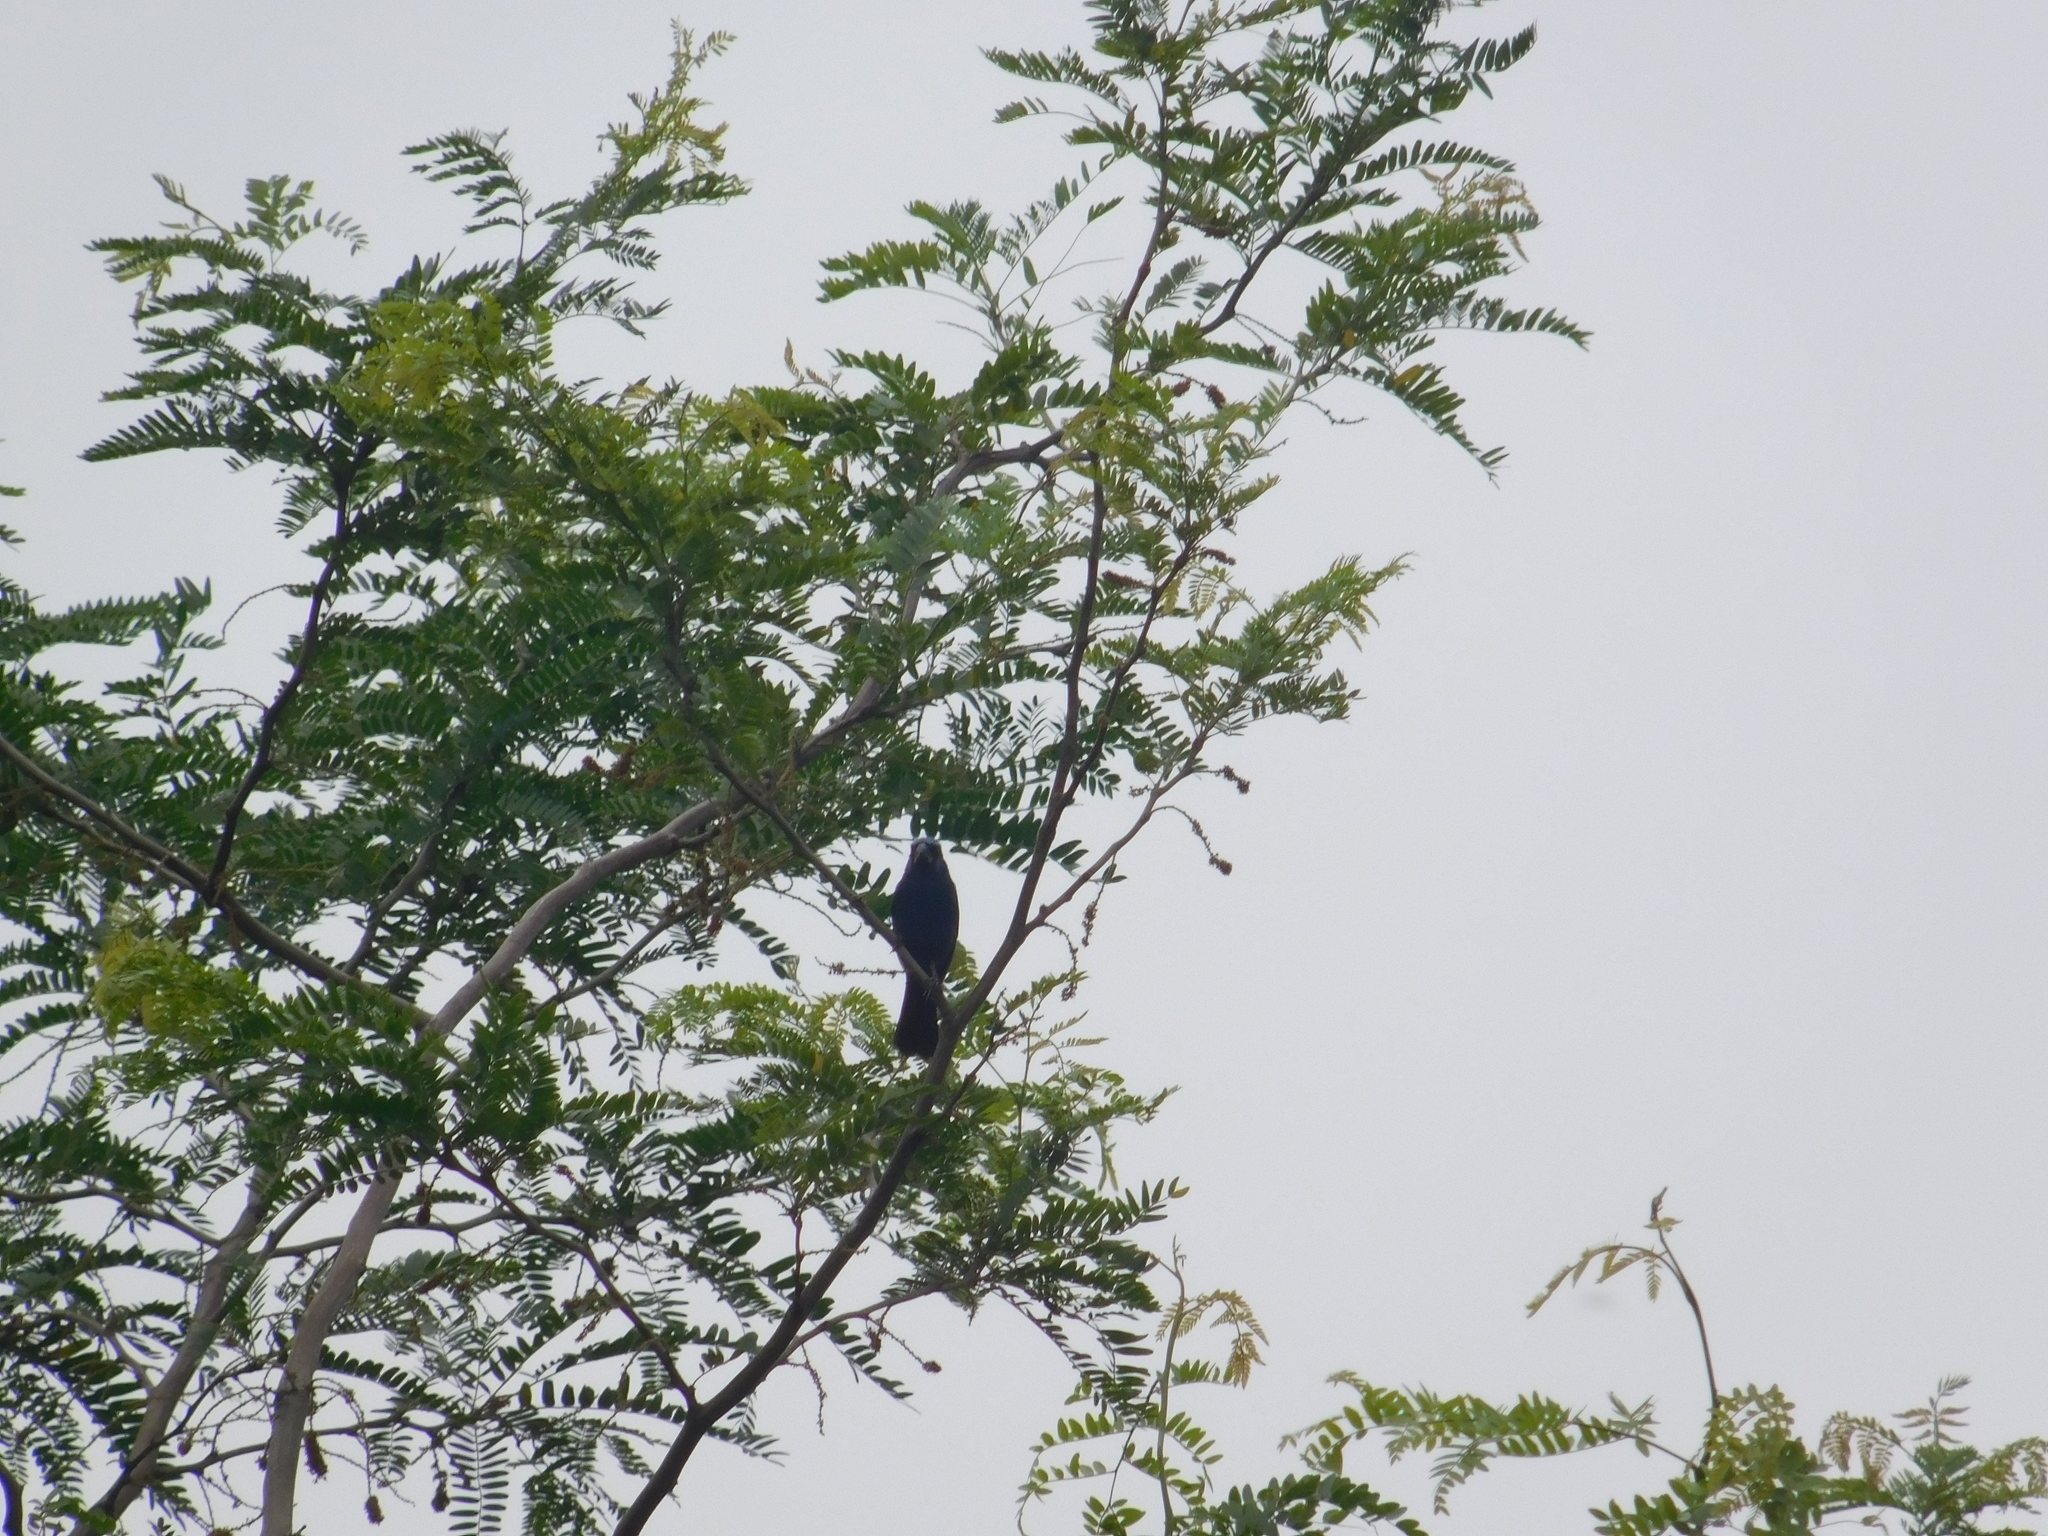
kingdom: Animalia
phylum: Chordata
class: Aves
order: Passeriformes
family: Cardinalidae
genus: Cyanoloxia
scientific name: Cyanoloxia brissonii
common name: Ultramarine grosbeak
